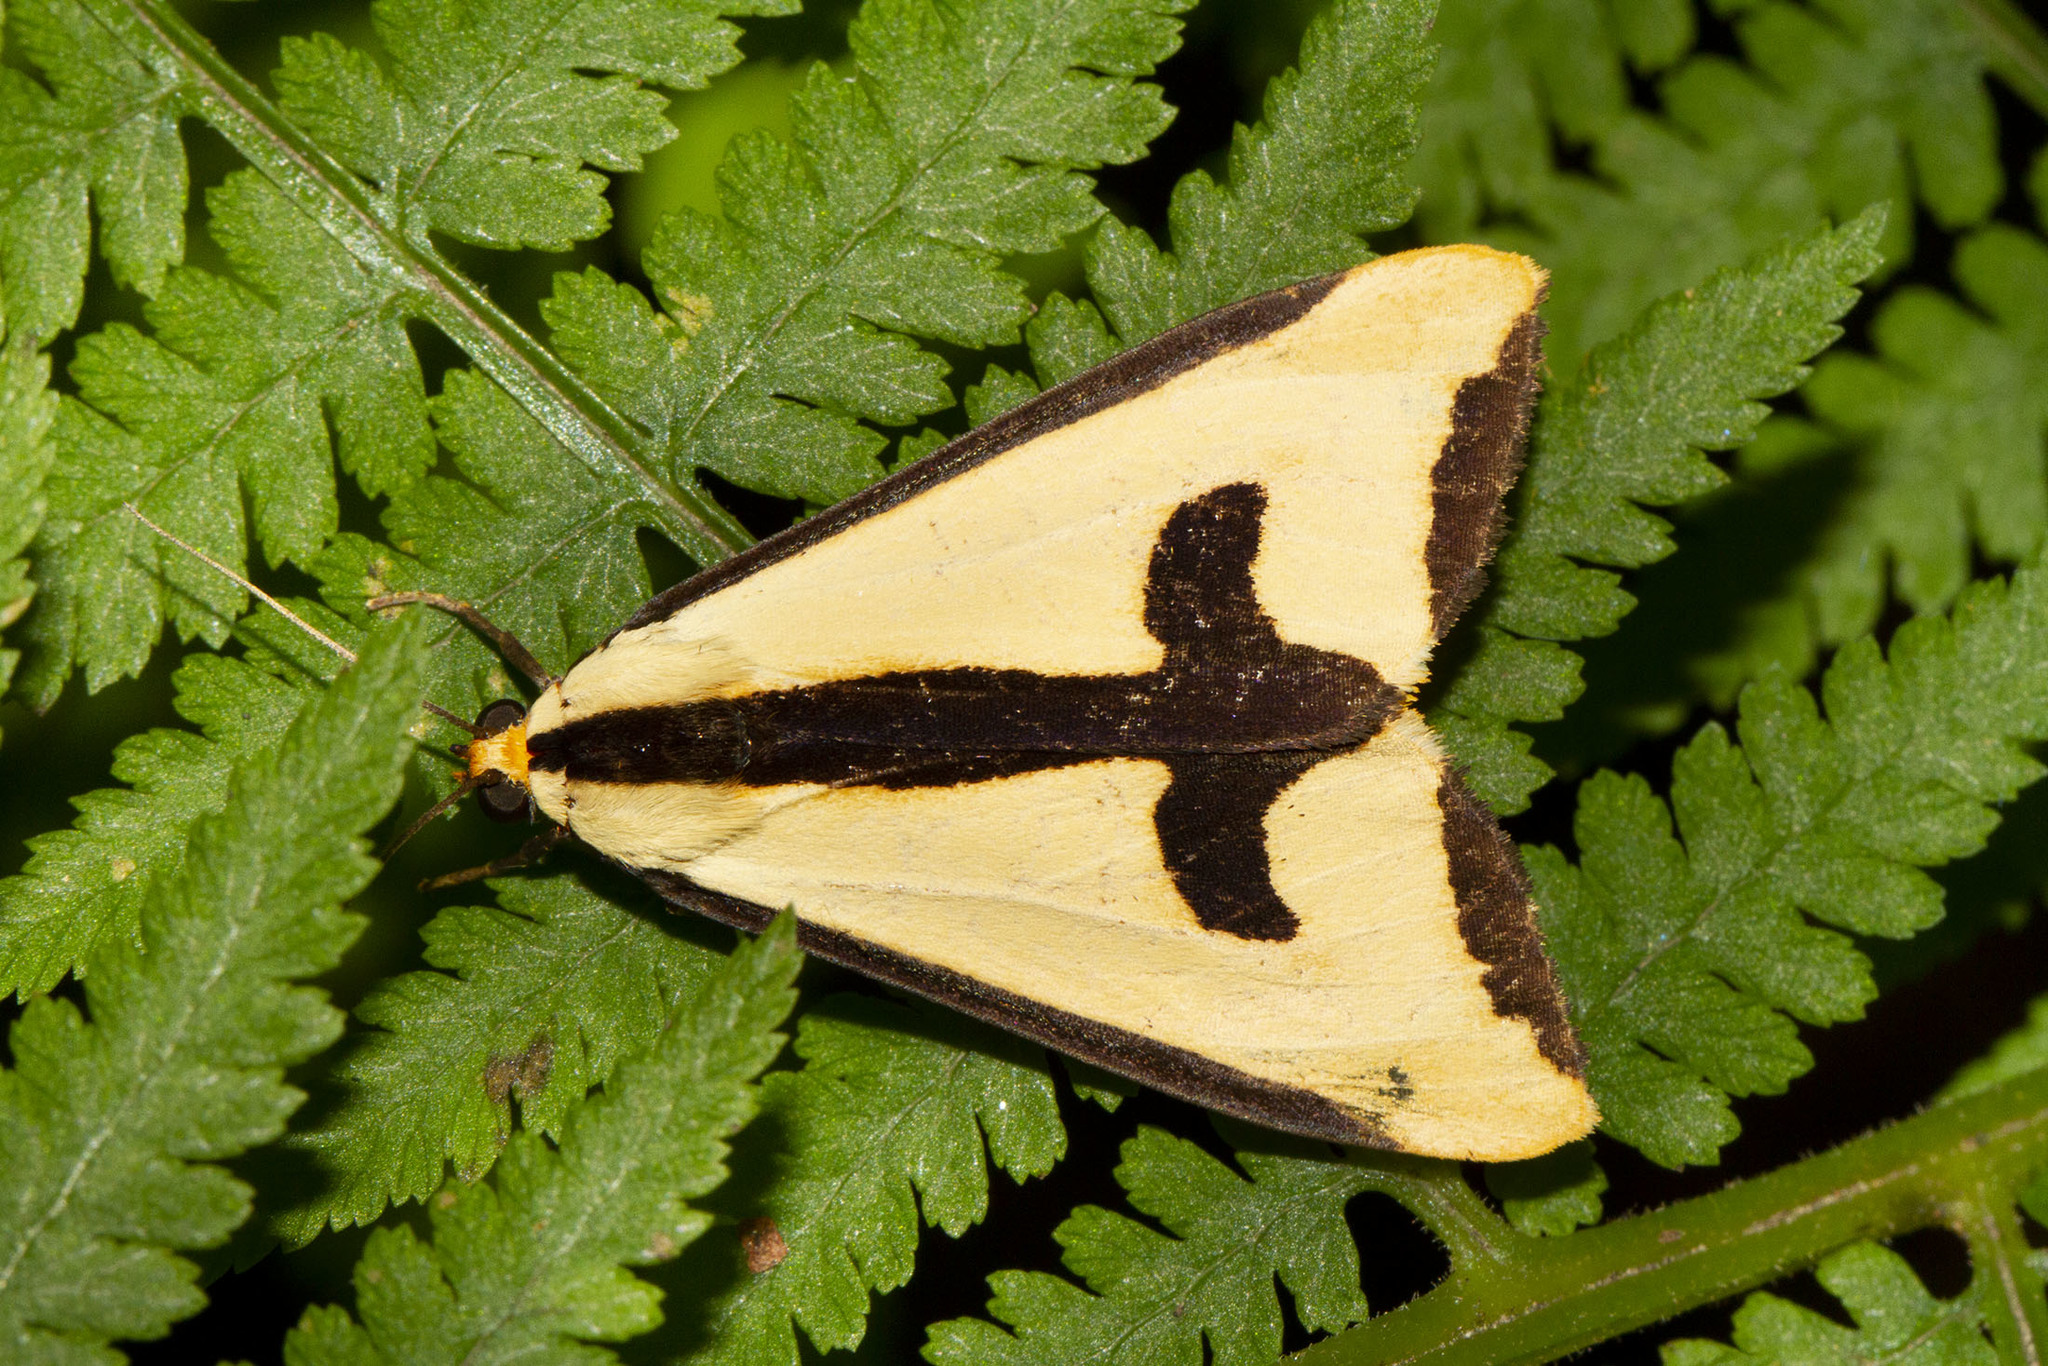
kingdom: Animalia
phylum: Arthropoda
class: Insecta
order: Lepidoptera
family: Erebidae
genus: Haploa
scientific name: Haploa clymene
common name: Clymene moth
